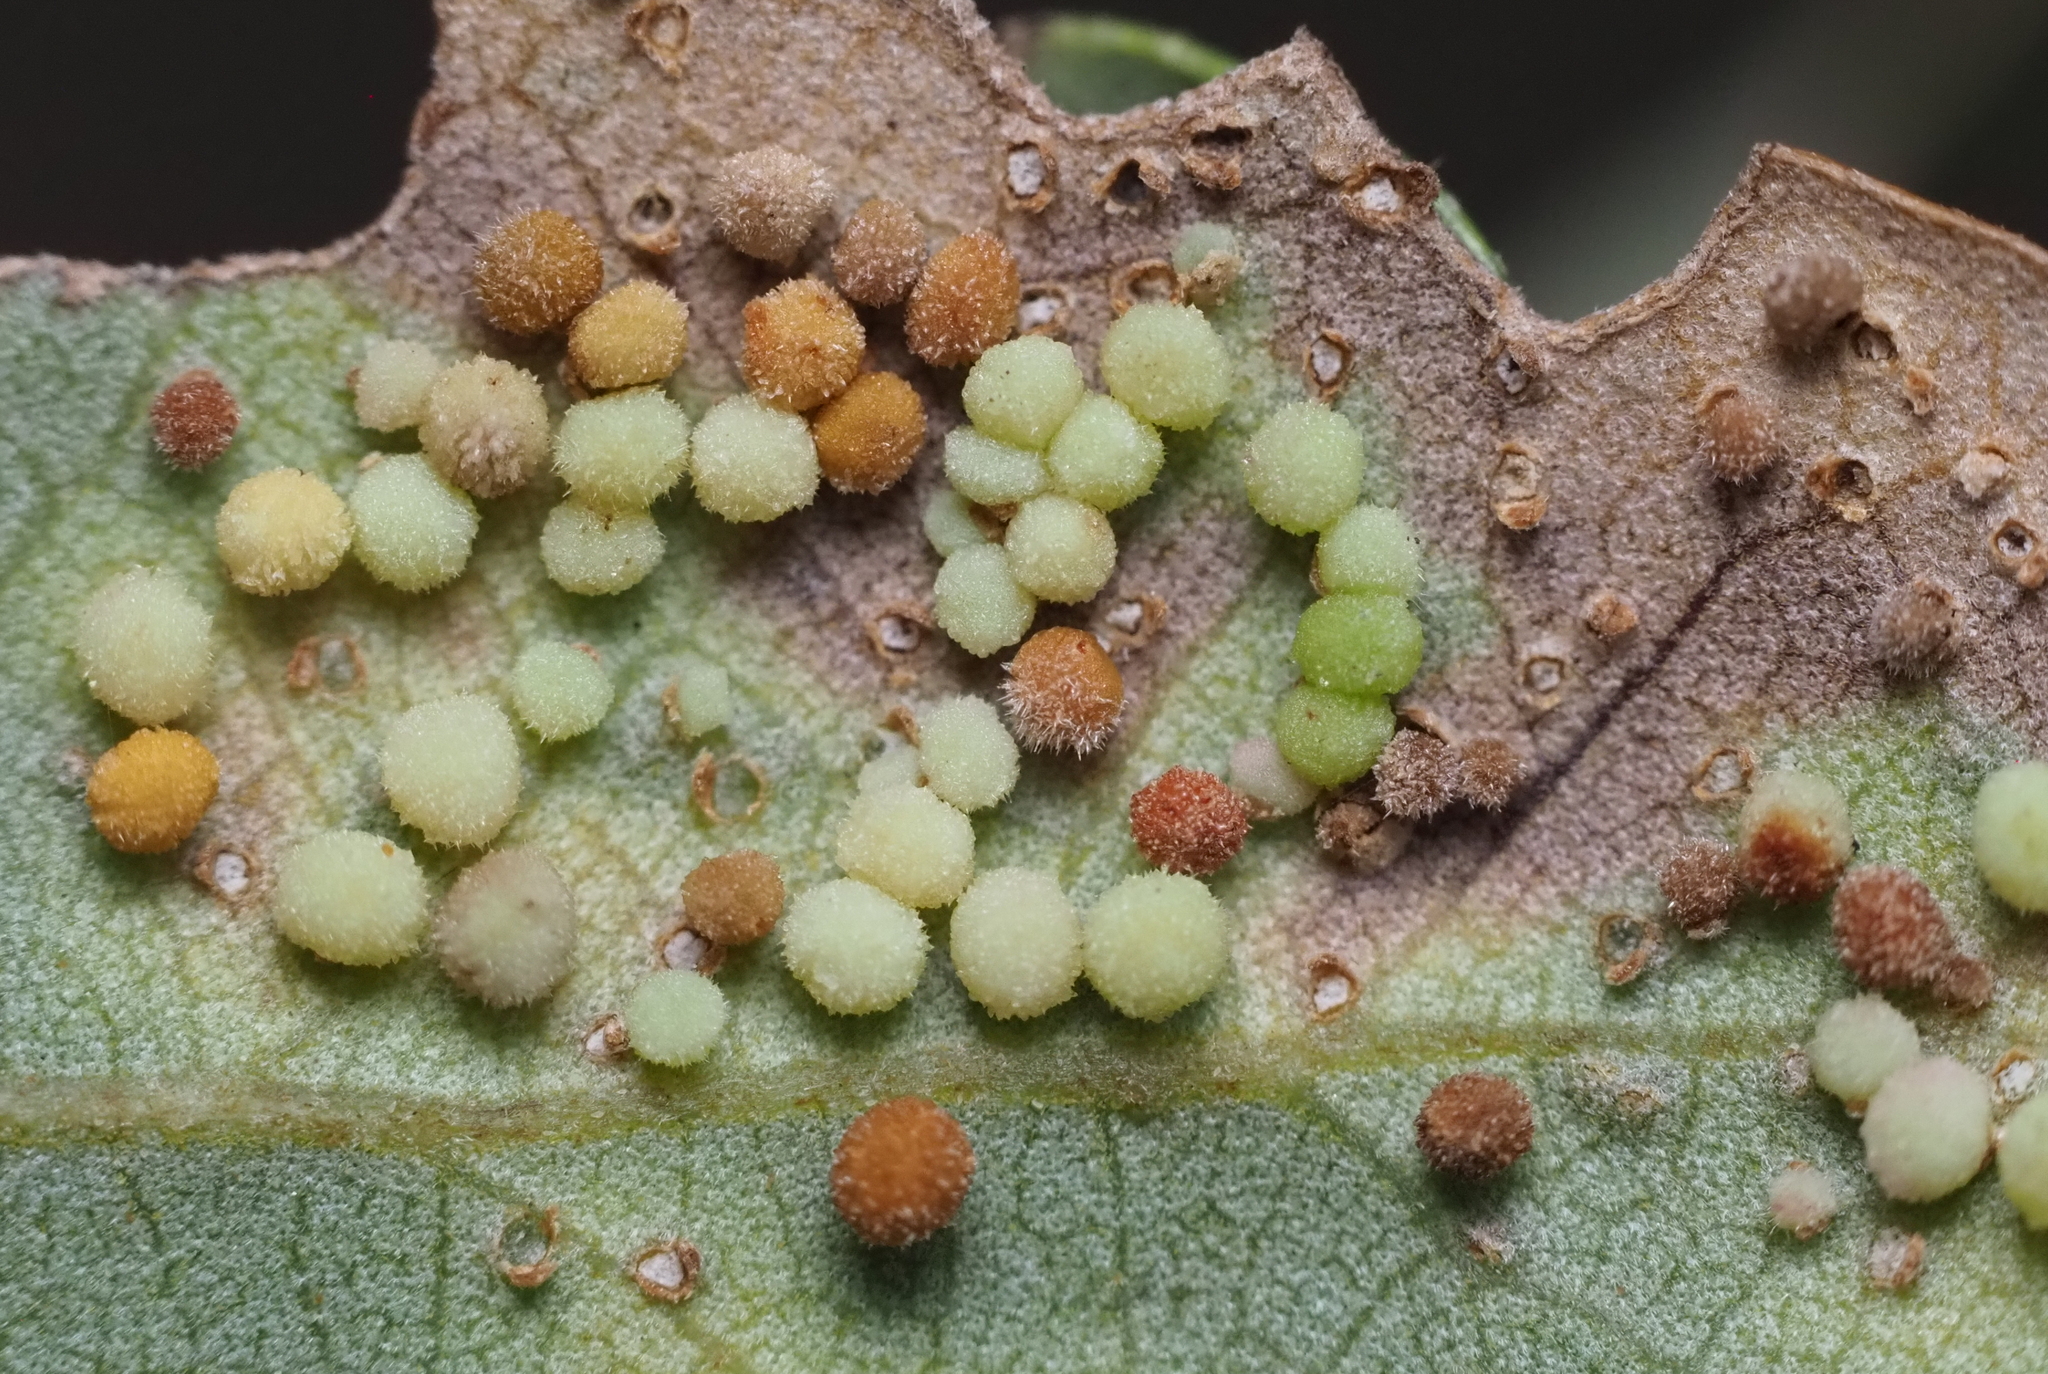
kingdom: Animalia
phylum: Arthropoda
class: Insecta
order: Hymenoptera
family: Cynipidae
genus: Neuroterus
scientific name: Neuroterus saltarius
